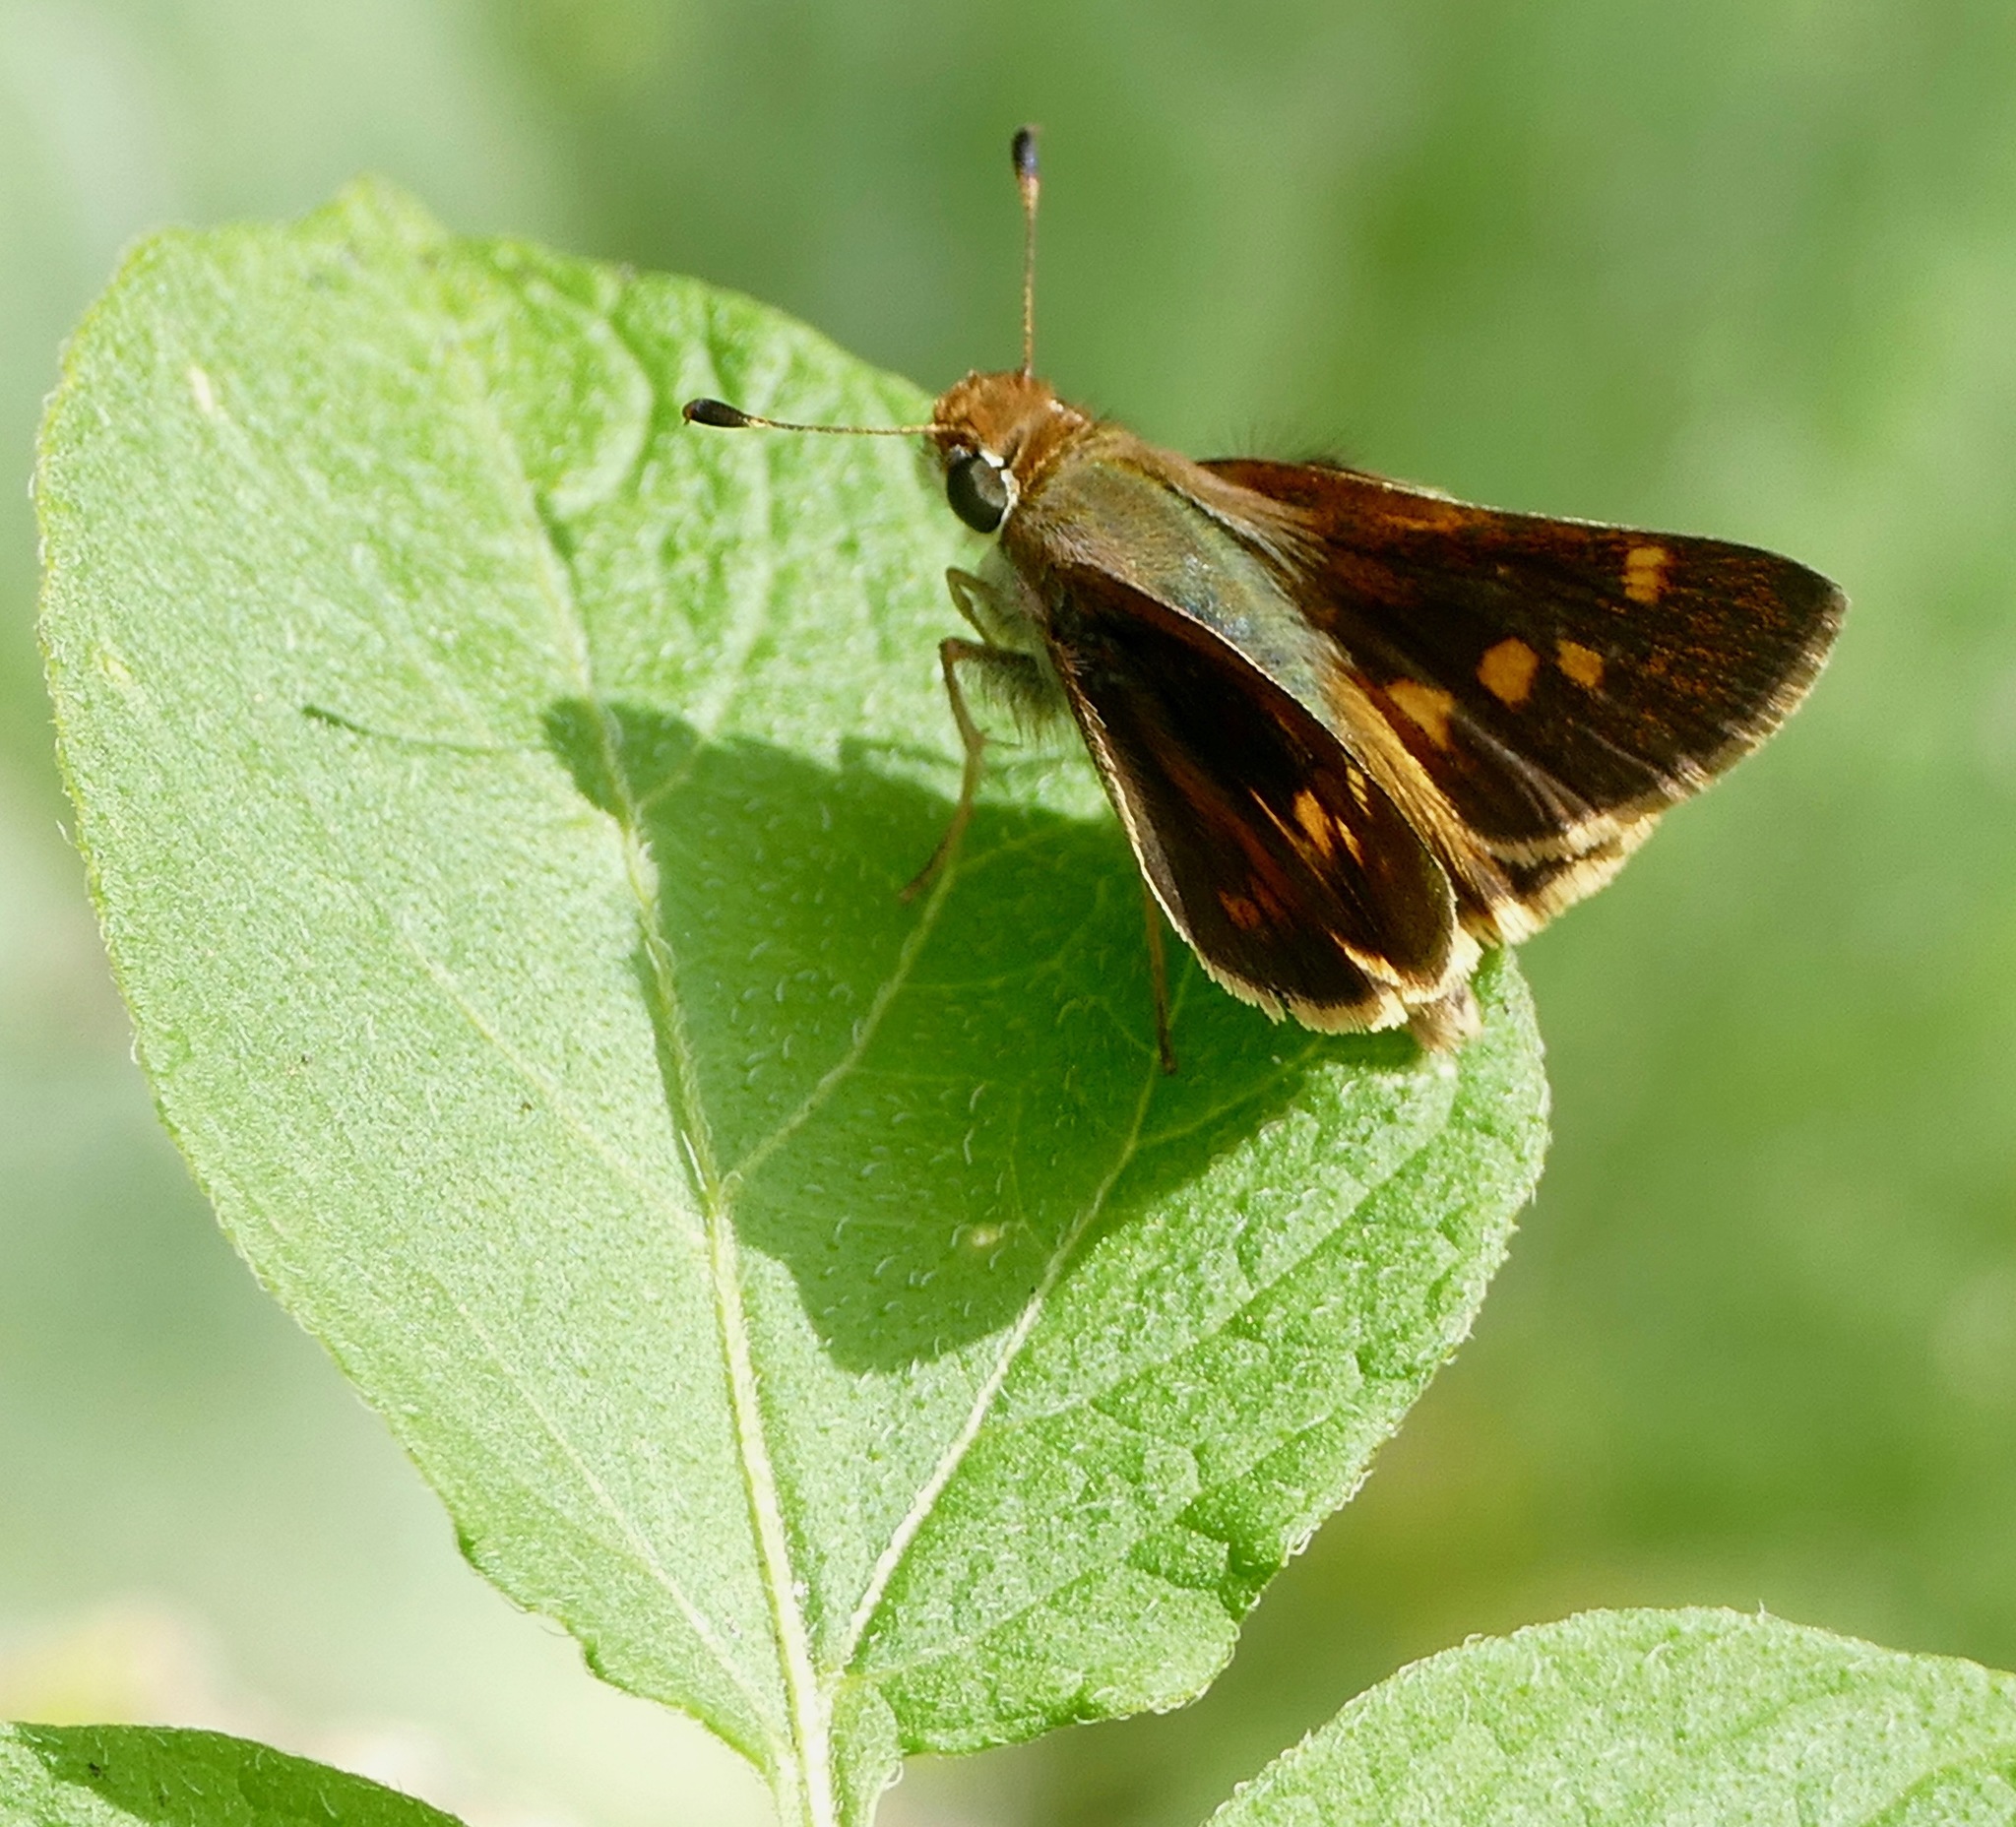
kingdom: Animalia
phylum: Arthropoda
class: Insecta
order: Lepidoptera
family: Hesperiidae
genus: Lon
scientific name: Lon melane
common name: Umber skipper
